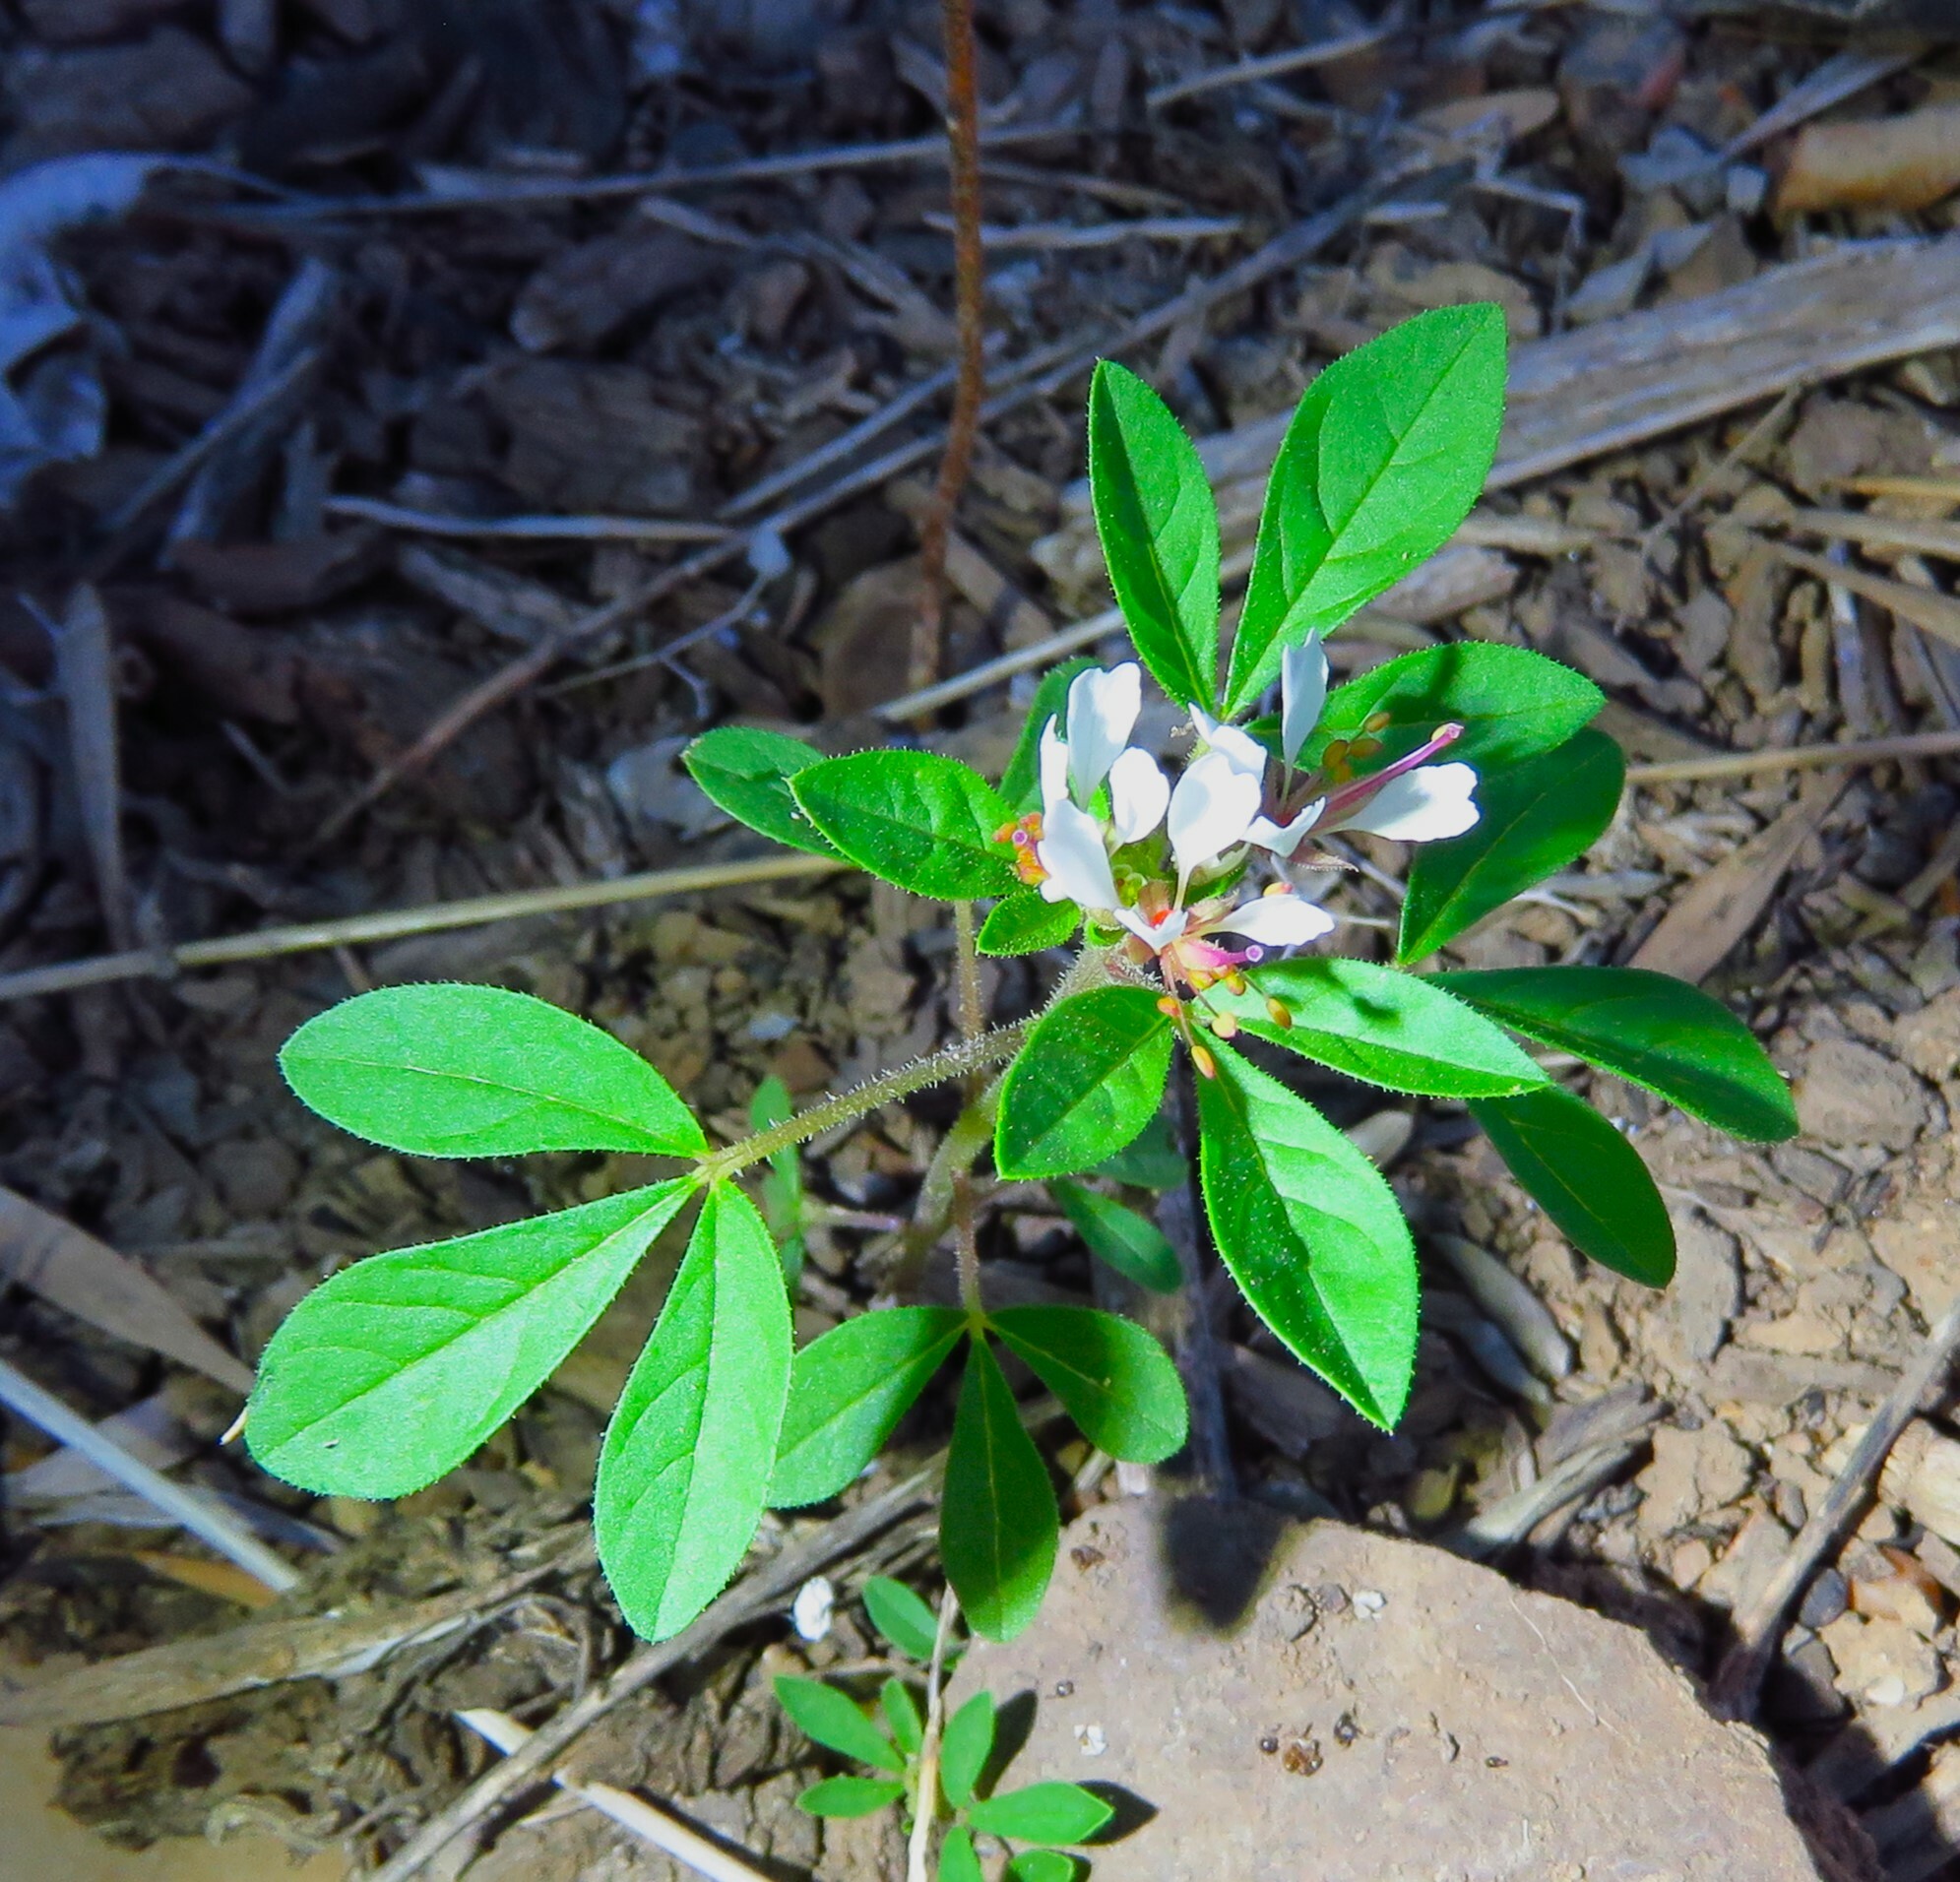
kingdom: Plantae
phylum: Tracheophyta
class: Magnoliopsida
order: Brassicales
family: Cleomaceae
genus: Polanisia
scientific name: Polanisia dodecandra
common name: Clammyweed
